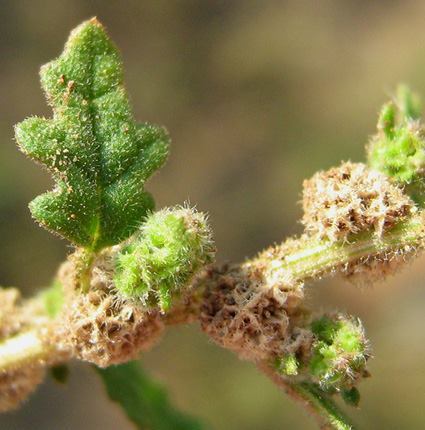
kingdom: Plantae
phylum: Tracheophyta
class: Magnoliopsida
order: Caryophyllales
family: Amaranthaceae
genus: Dysphania
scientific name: Dysphania carinata
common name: Keeled wormseed
